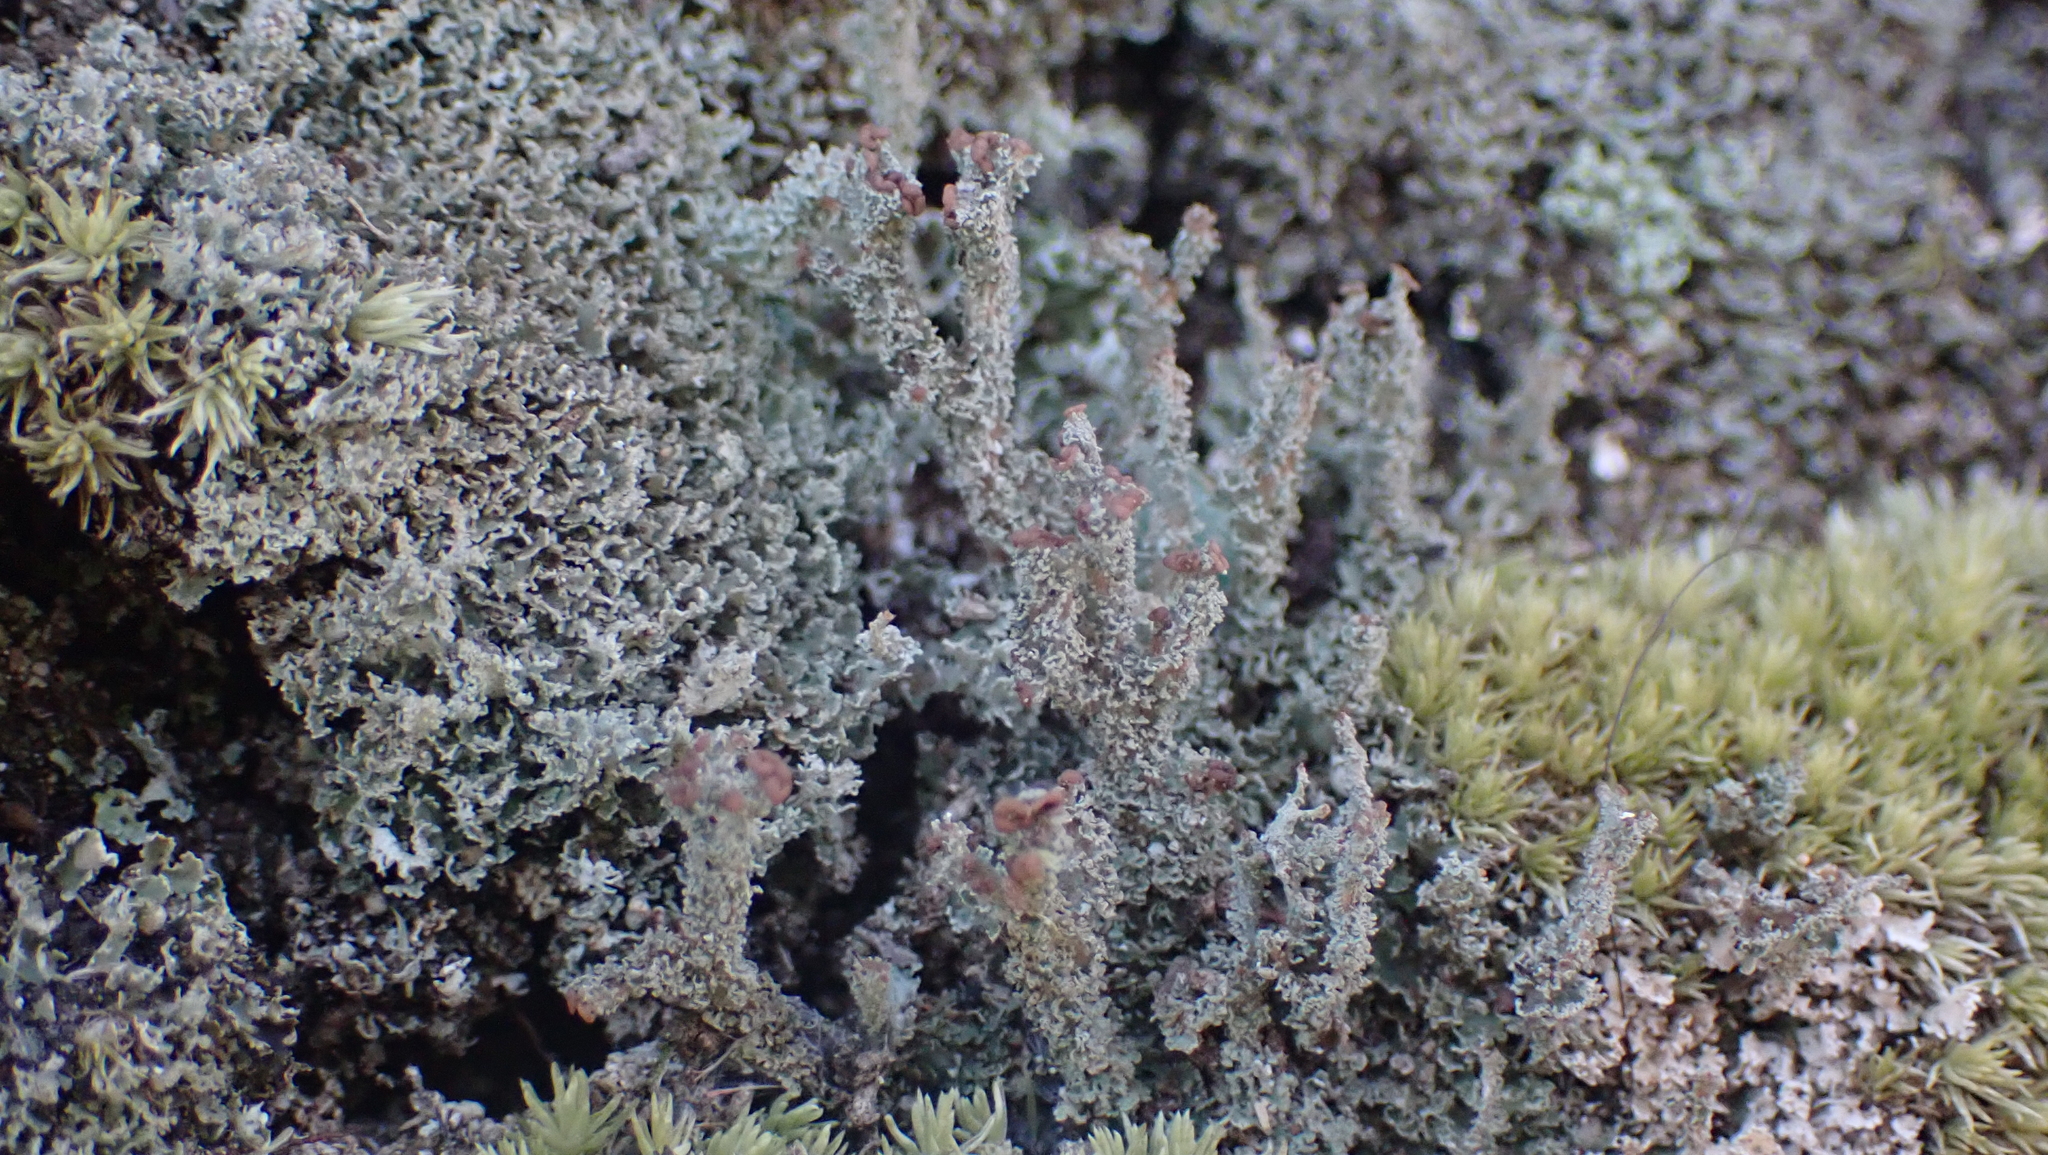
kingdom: Fungi
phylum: Ascomycota
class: Lecanoromycetes
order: Lecanorales
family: Cladoniaceae
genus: Cladonia
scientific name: Cladonia squamosa
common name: Dragon horn
